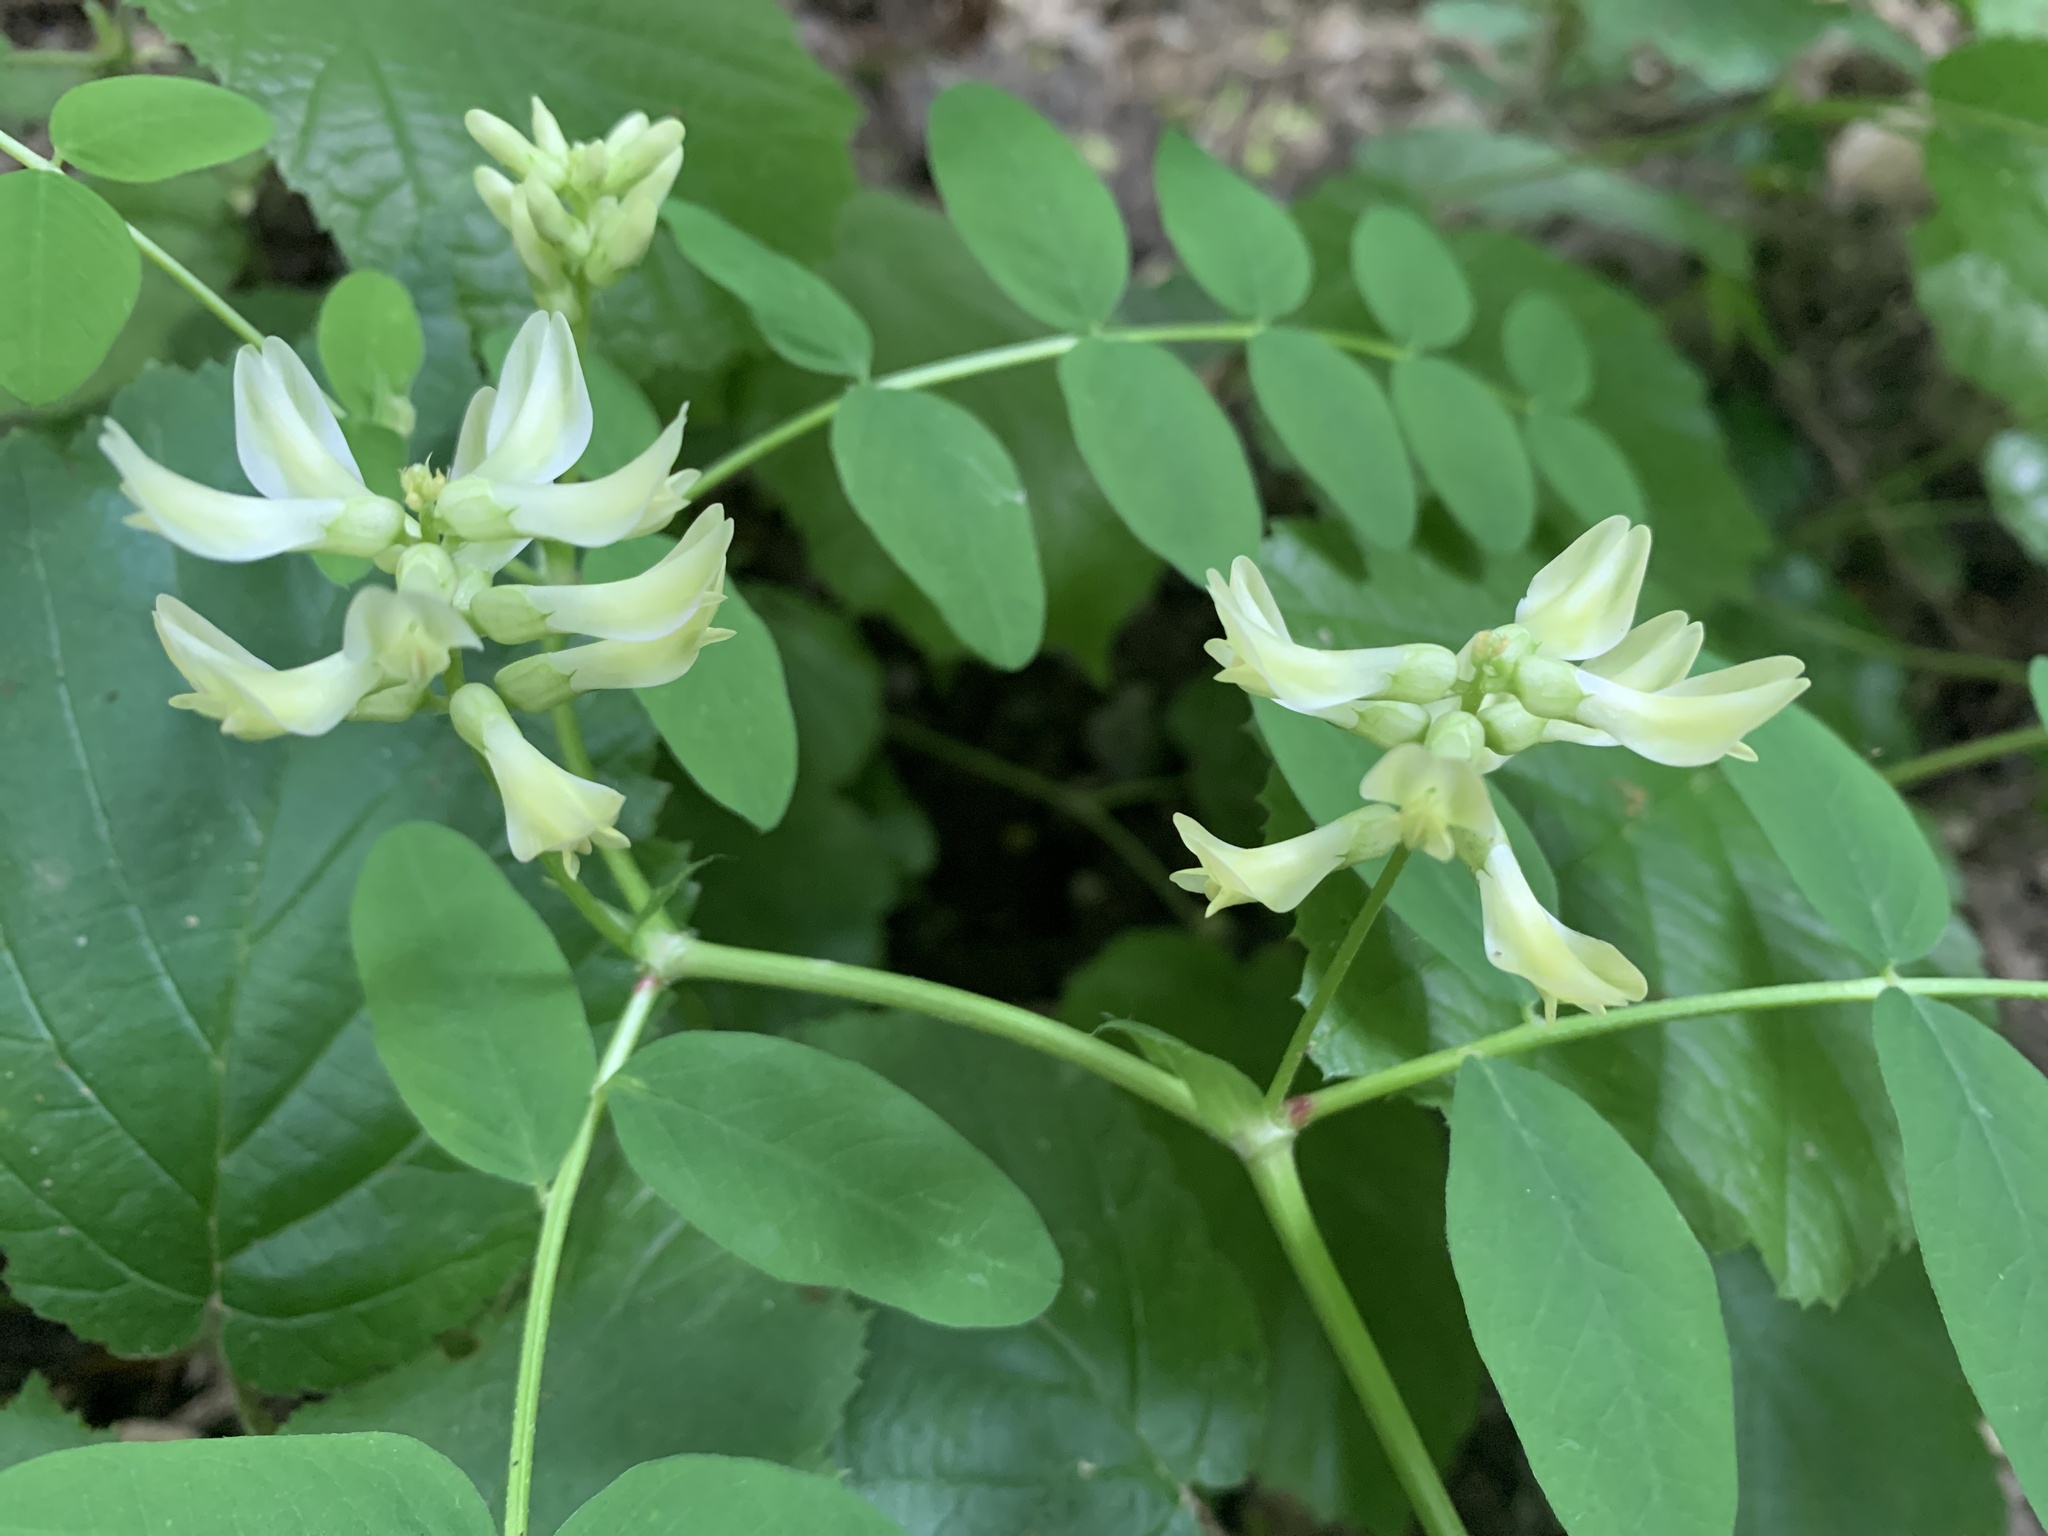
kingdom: Plantae
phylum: Tracheophyta
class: Magnoliopsida
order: Fabales
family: Fabaceae
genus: Astragalus
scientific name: Astragalus glycyphyllos
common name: Wild liquorice
